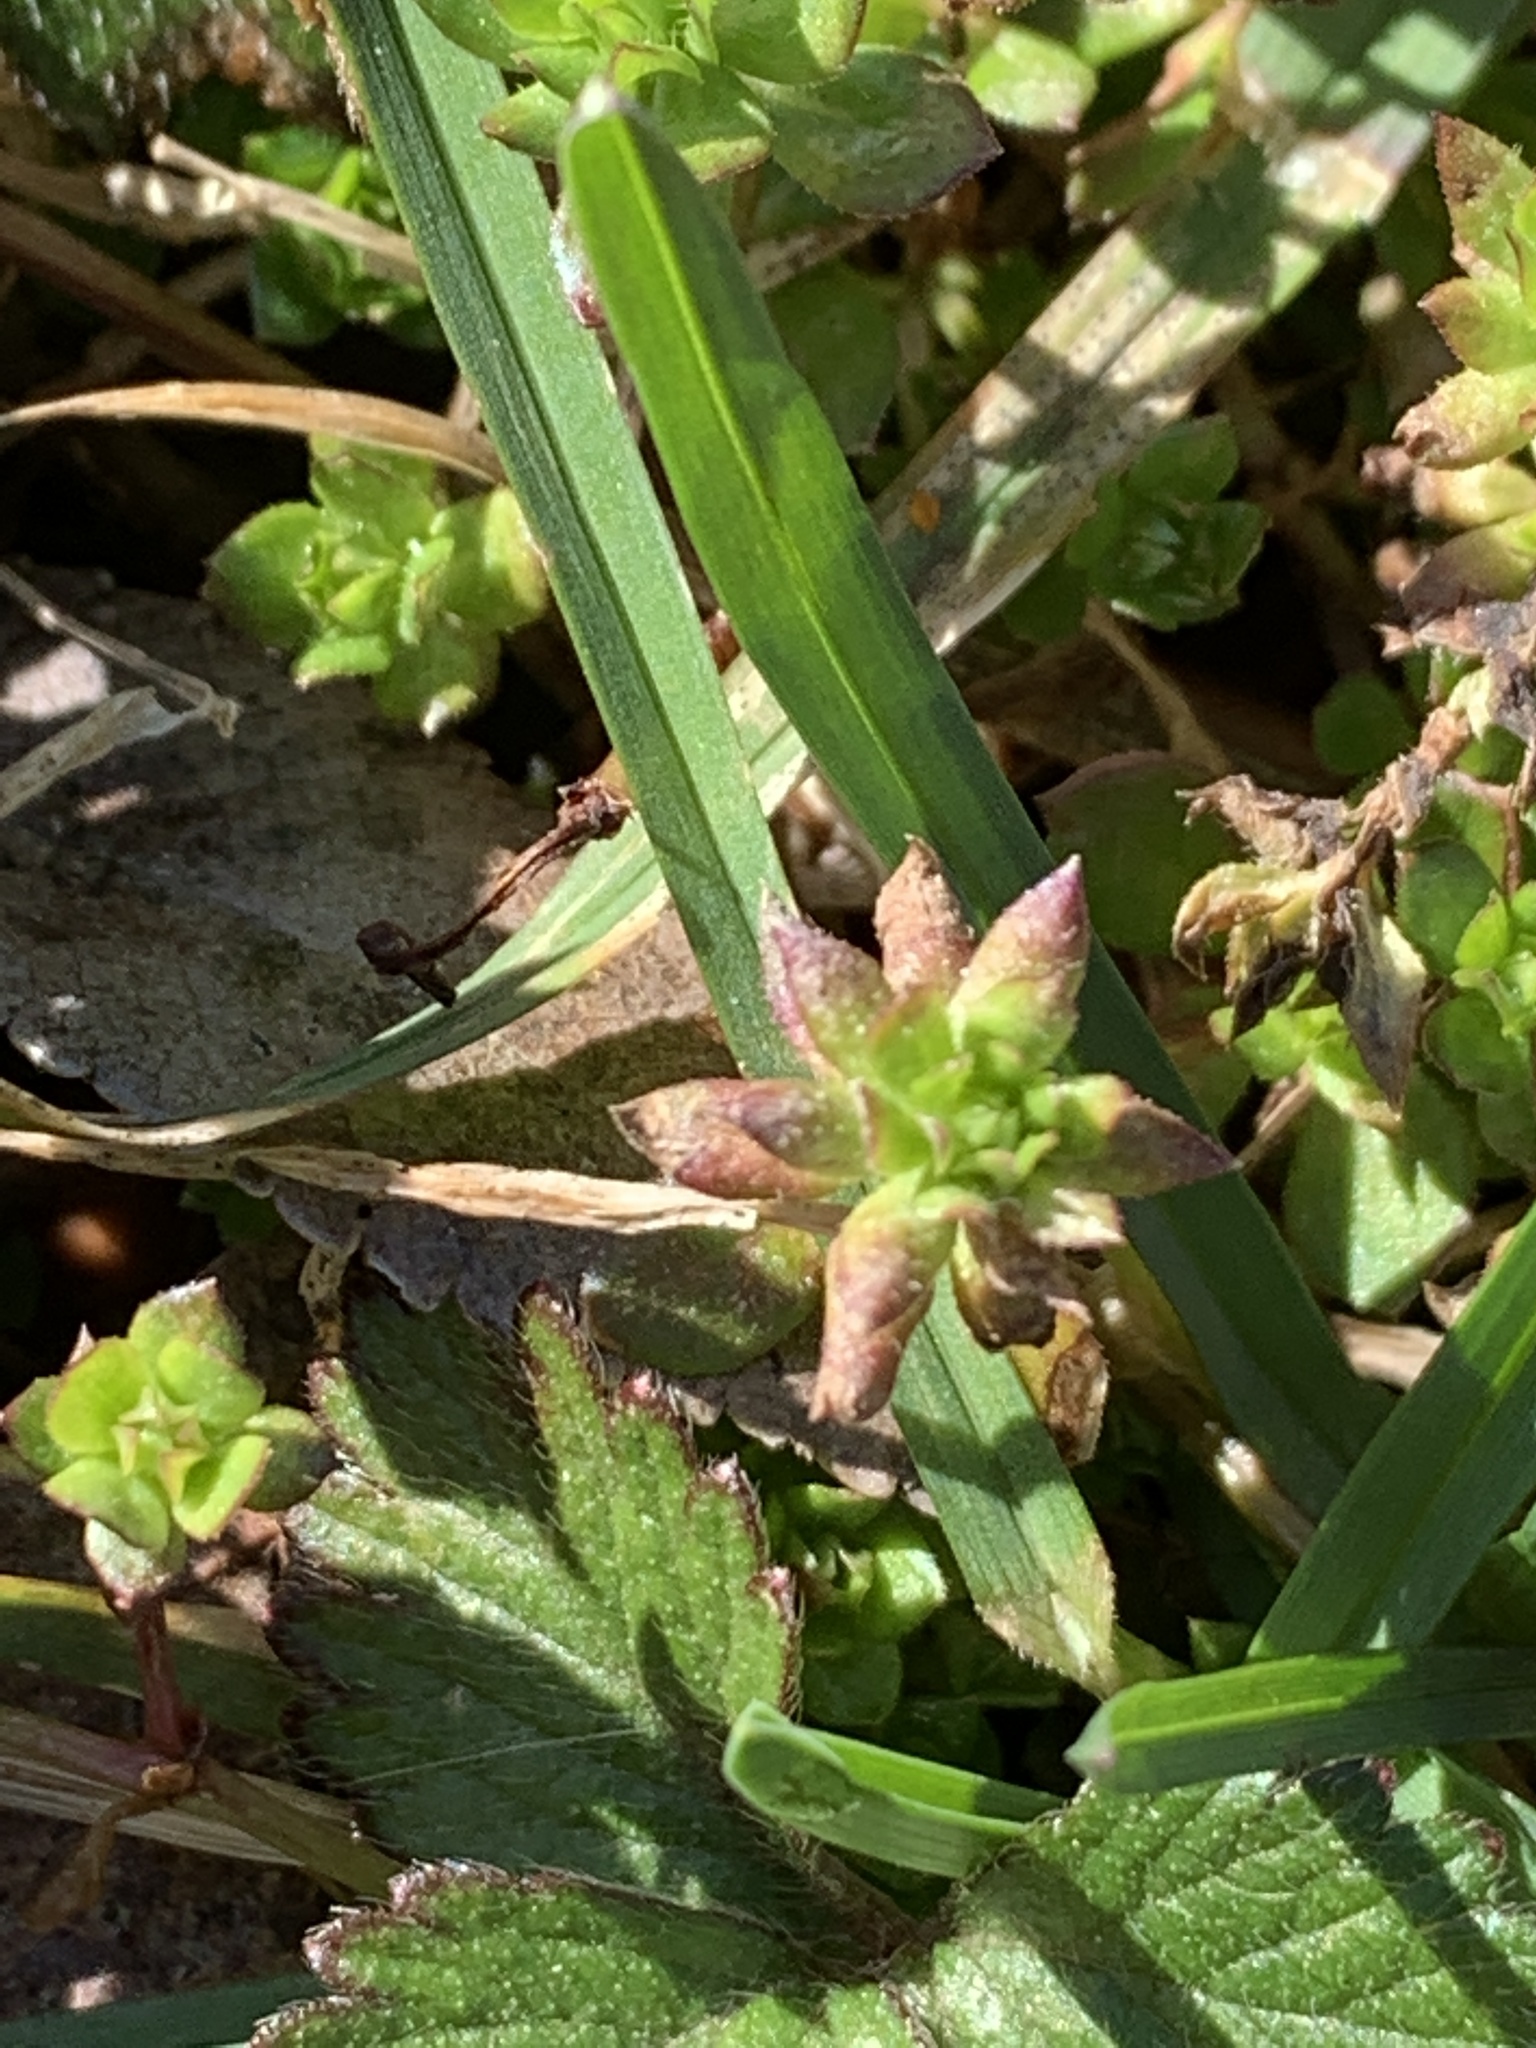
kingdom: Plantae
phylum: Tracheophyta
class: Magnoliopsida
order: Gentianales
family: Rubiaceae
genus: Sherardia
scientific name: Sherardia arvensis
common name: Field madder
